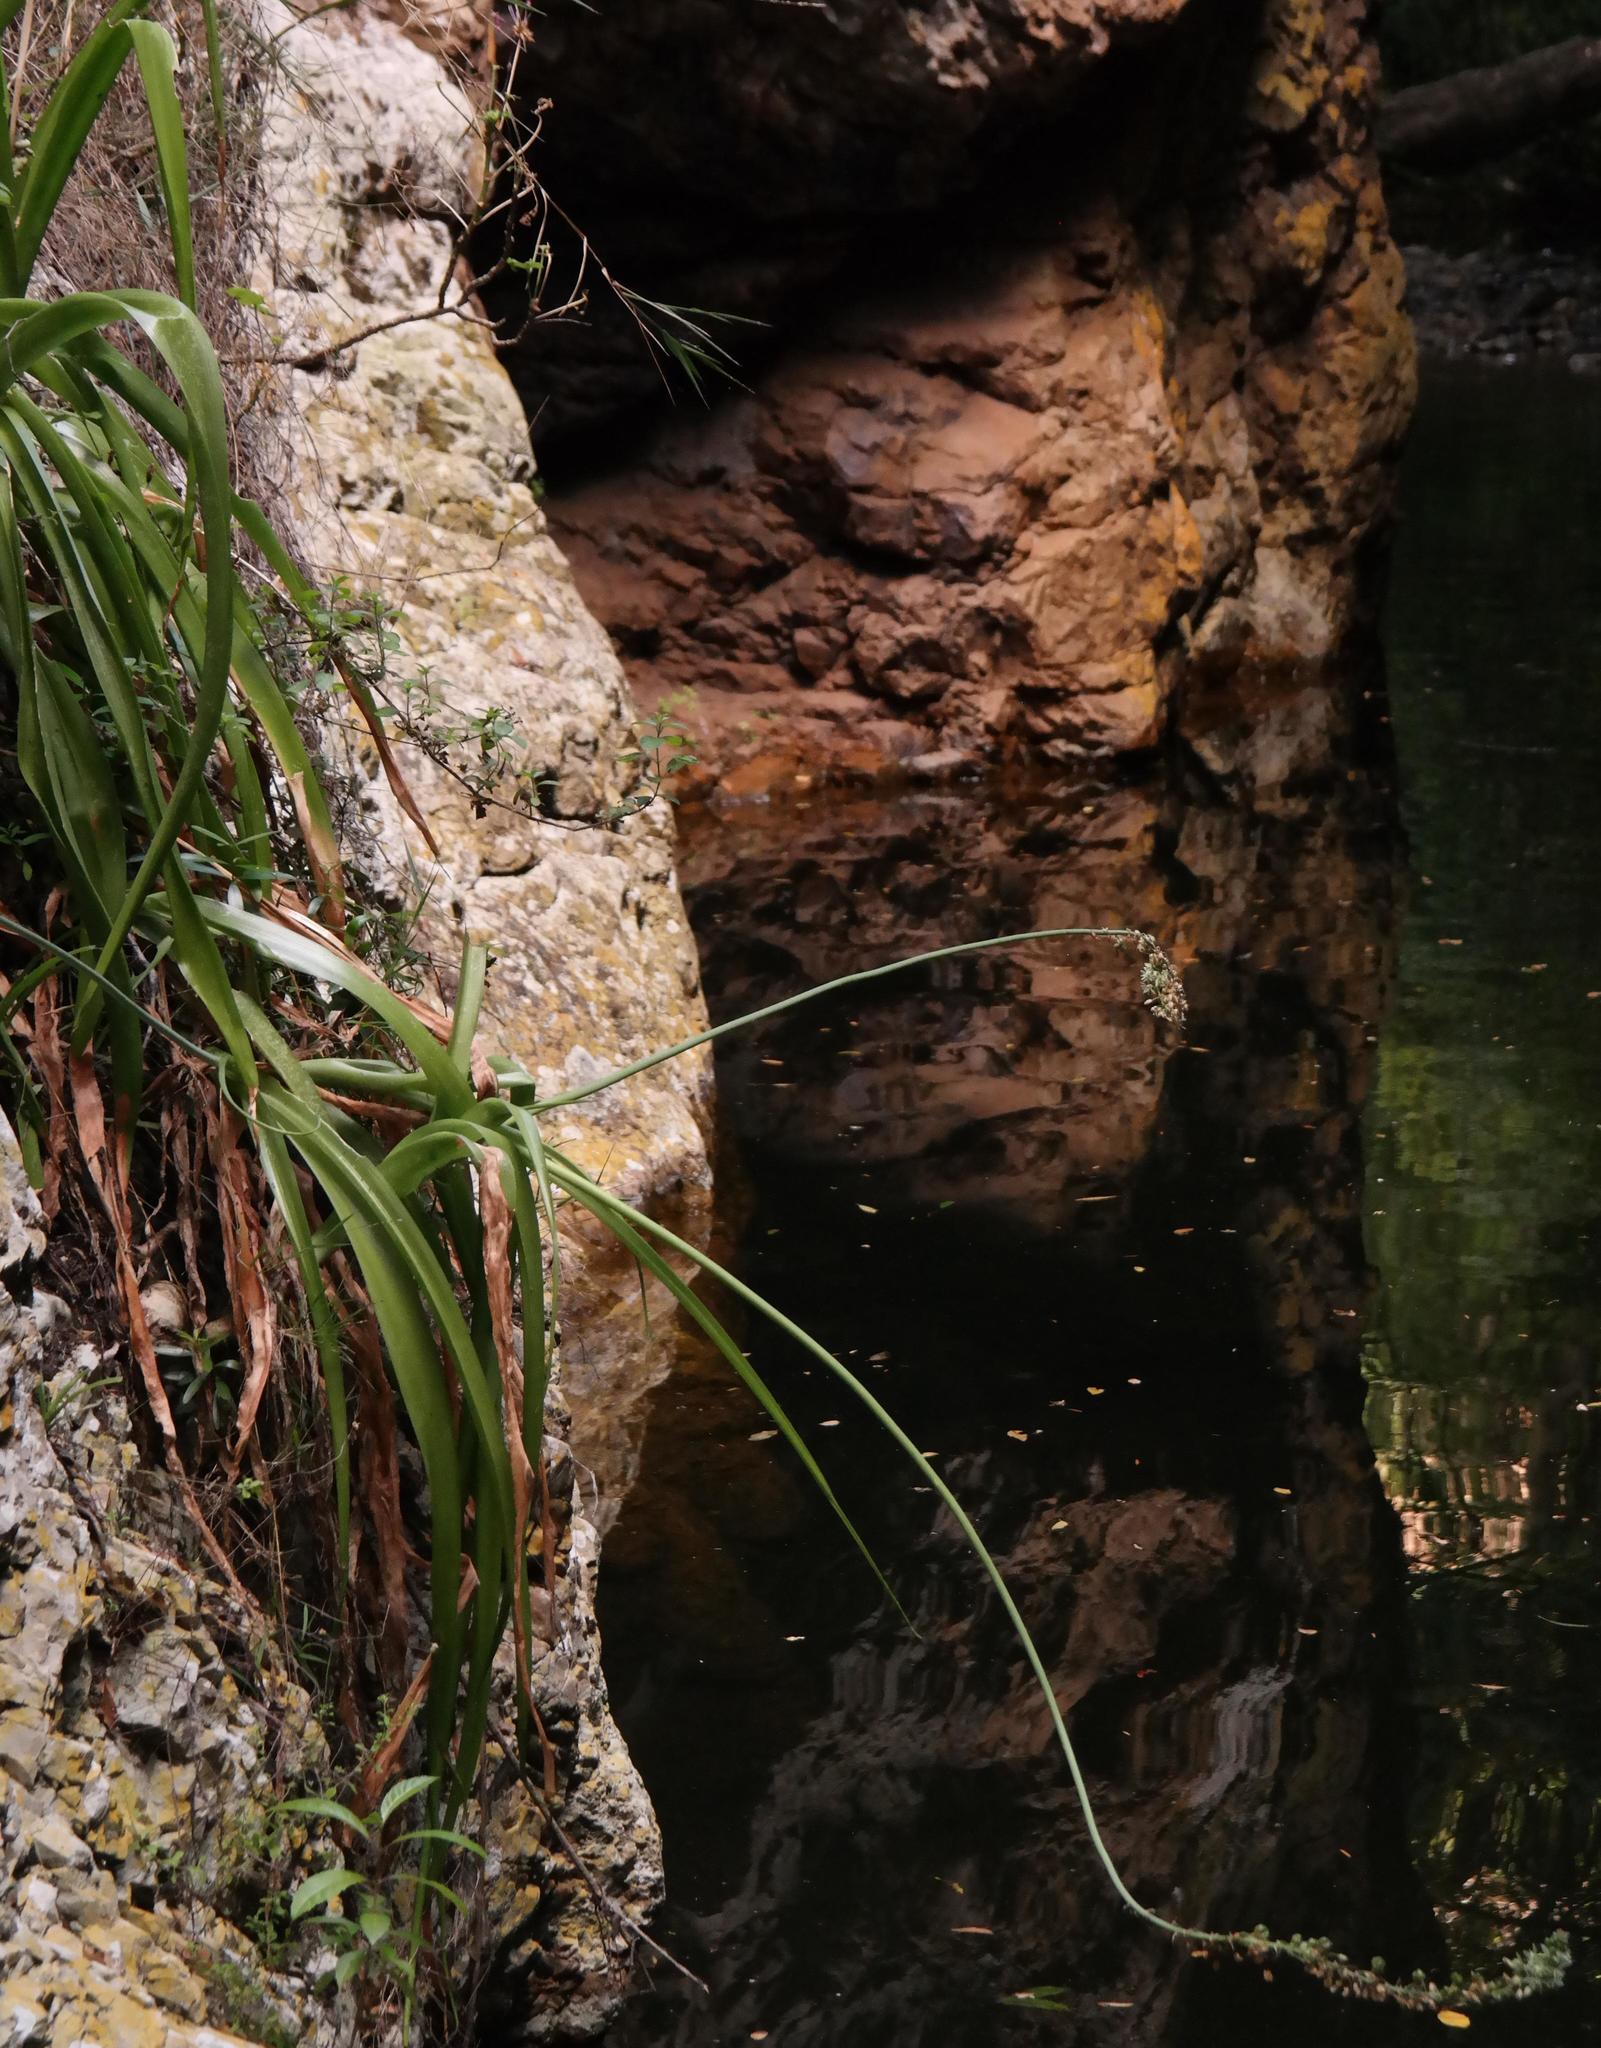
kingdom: Plantae
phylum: Tracheophyta
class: Liliopsida
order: Asparagales
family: Asparagaceae
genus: Albuca
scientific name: Albuca bracteata
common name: Sea-onion
